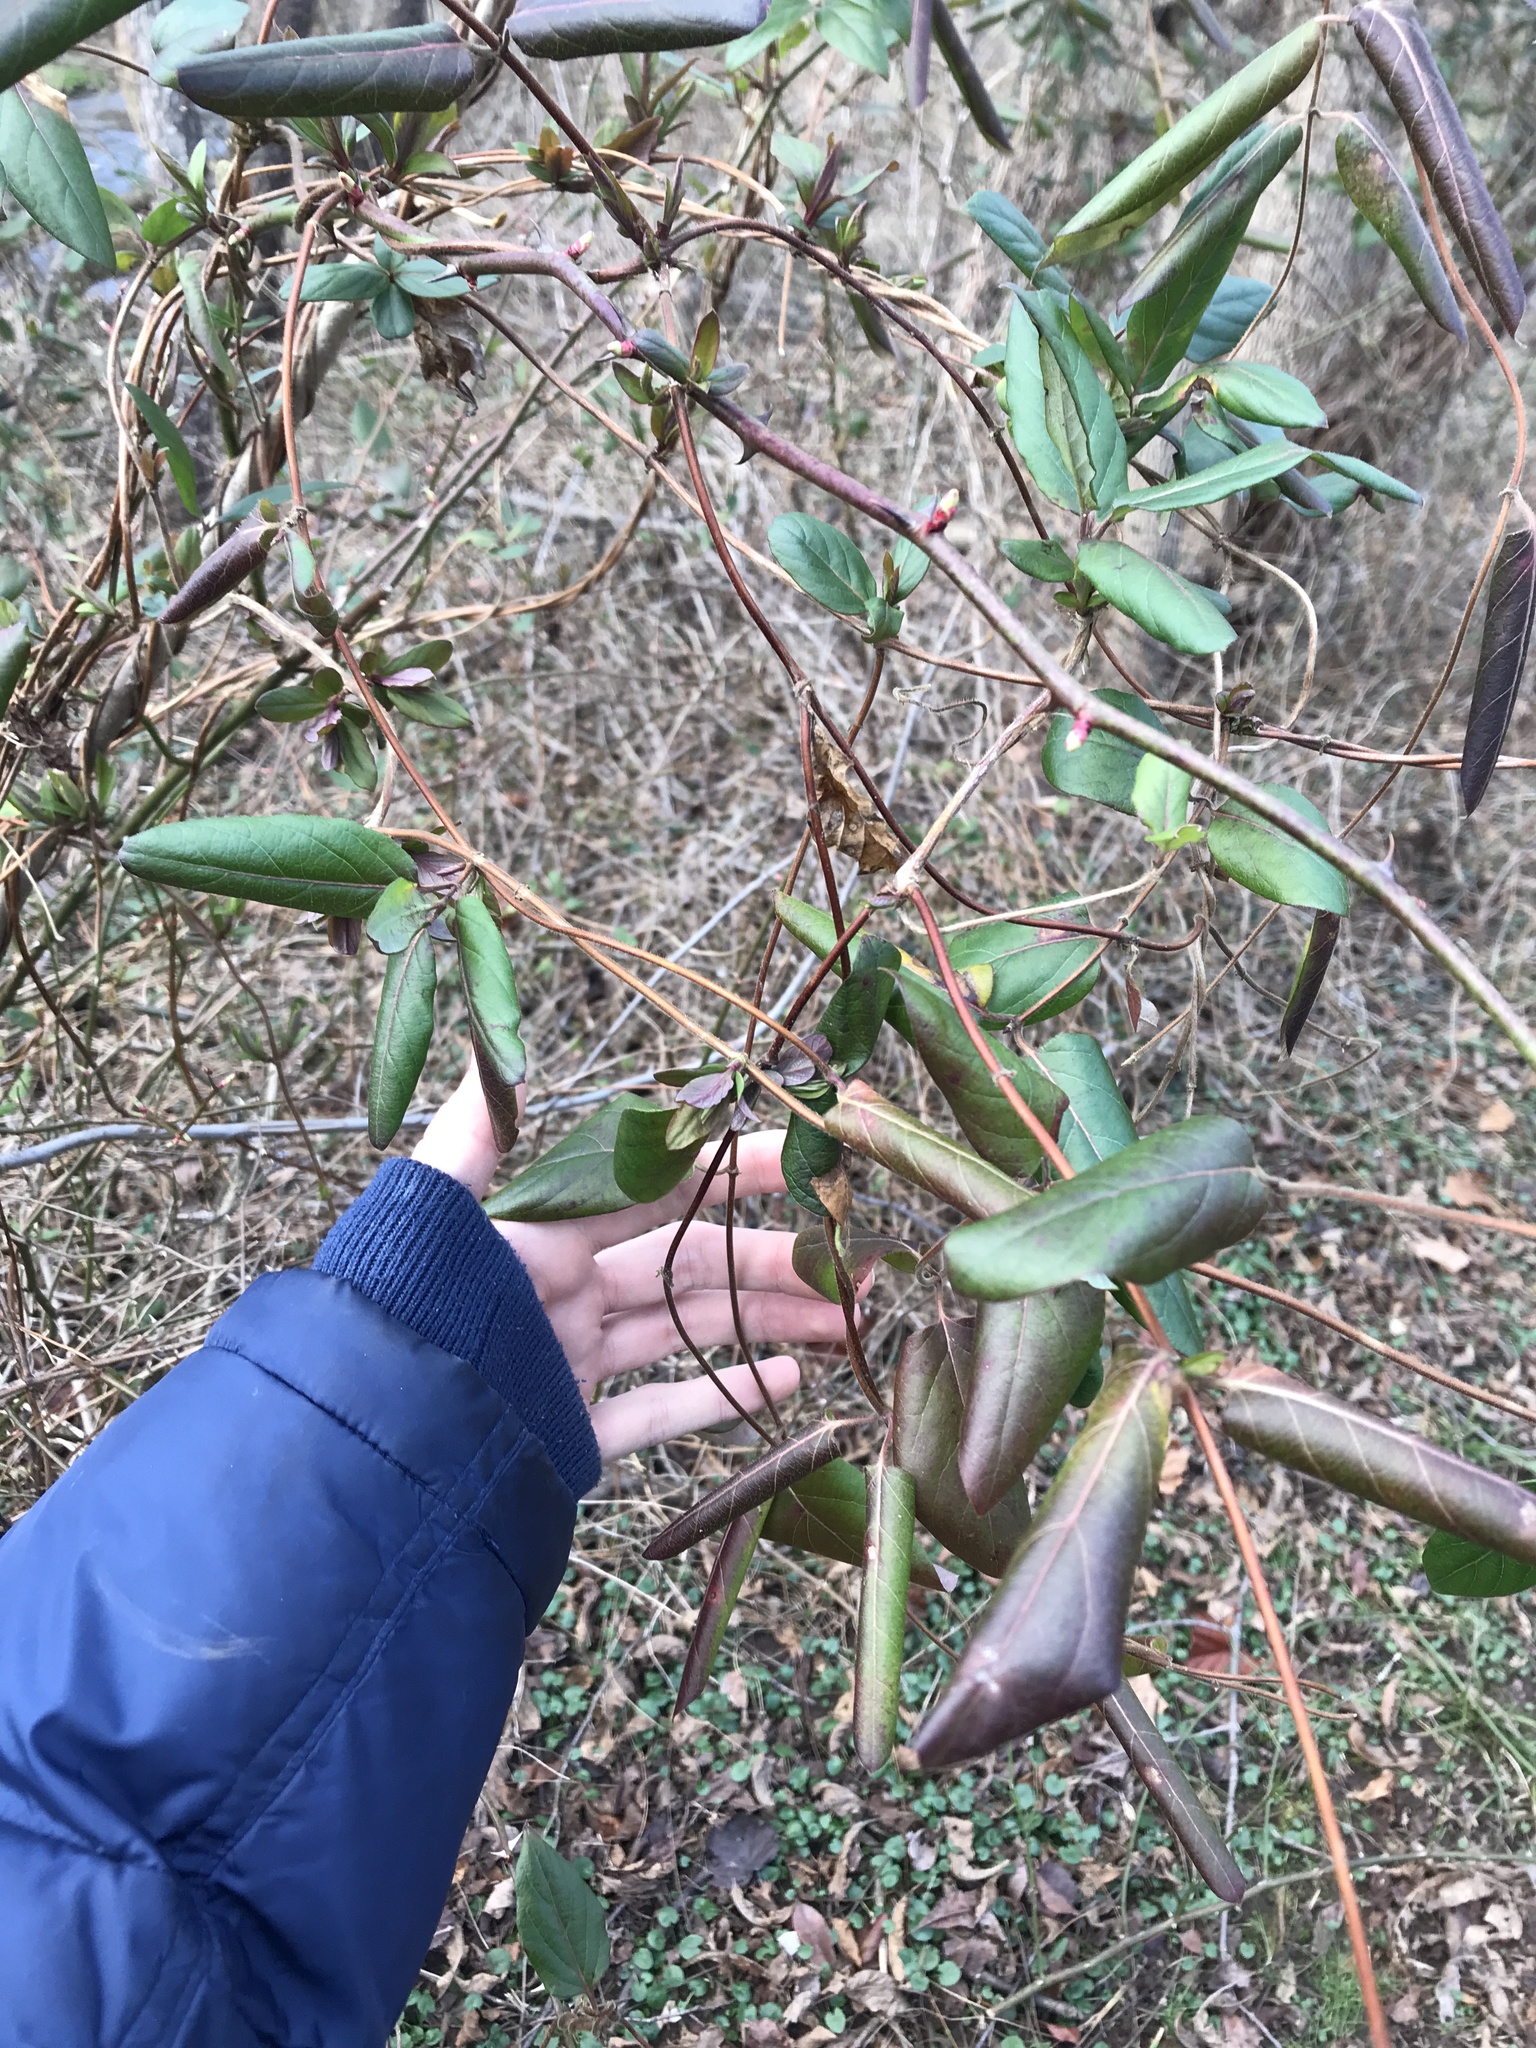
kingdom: Plantae
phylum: Tracheophyta
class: Magnoliopsida
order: Dipsacales
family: Caprifoliaceae
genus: Lonicera
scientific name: Lonicera japonica
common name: Japanese honeysuckle
